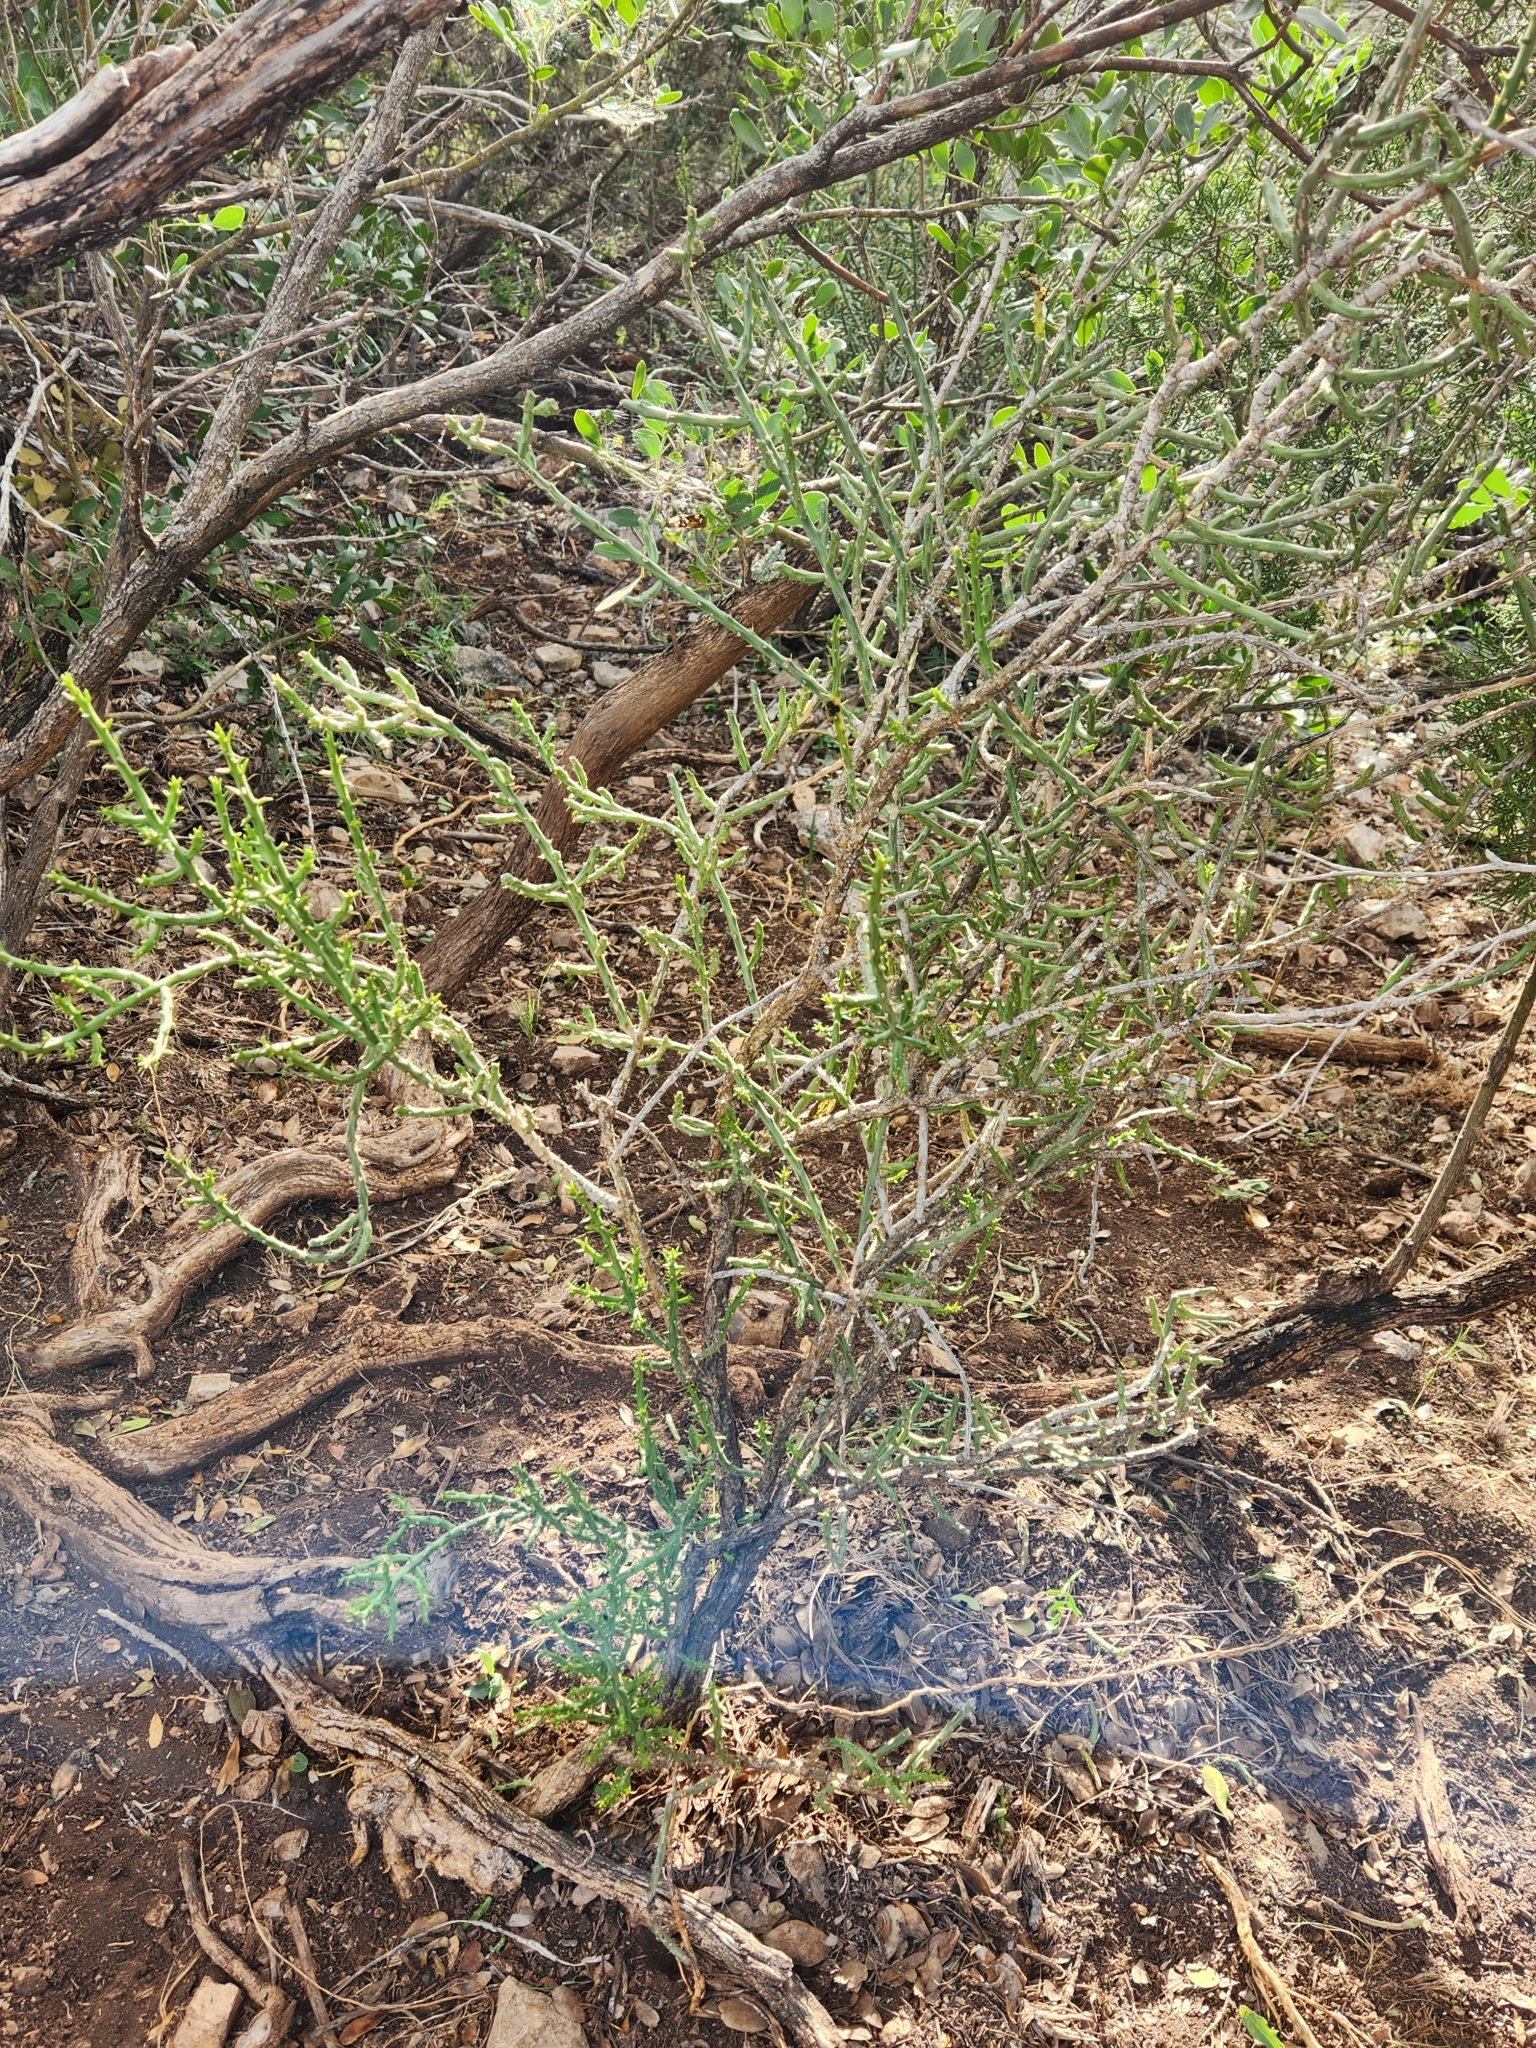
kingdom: Plantae
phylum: Tracheophyta
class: Magnoliopsida
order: Caryophyllales
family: Cactaceae
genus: Cylindropuntia
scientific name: Cylindropuntia leptocaulis
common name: Christmas cactus
